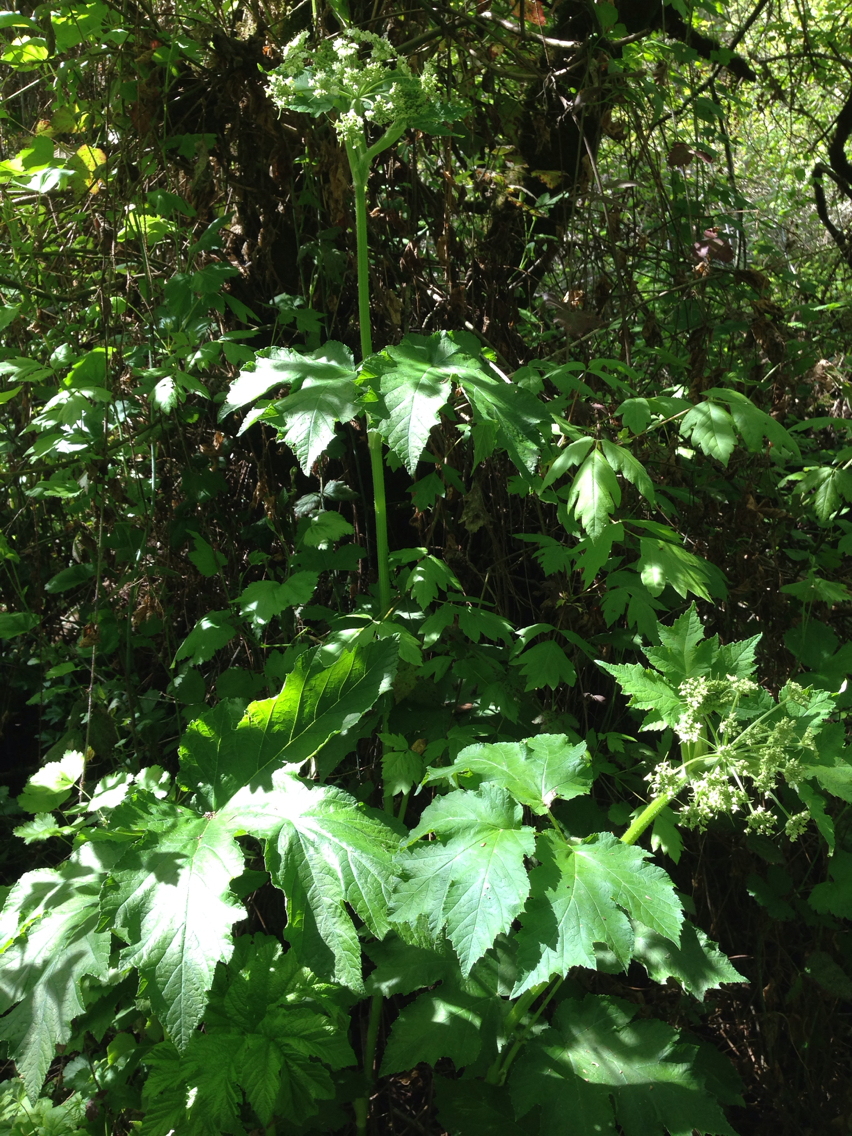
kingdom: Plantae
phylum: Tracheophyta
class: Magnoliopsida
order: Apiales
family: Apiaceae
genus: Heracleum
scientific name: Heracleum maximum
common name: American cow parsnip
